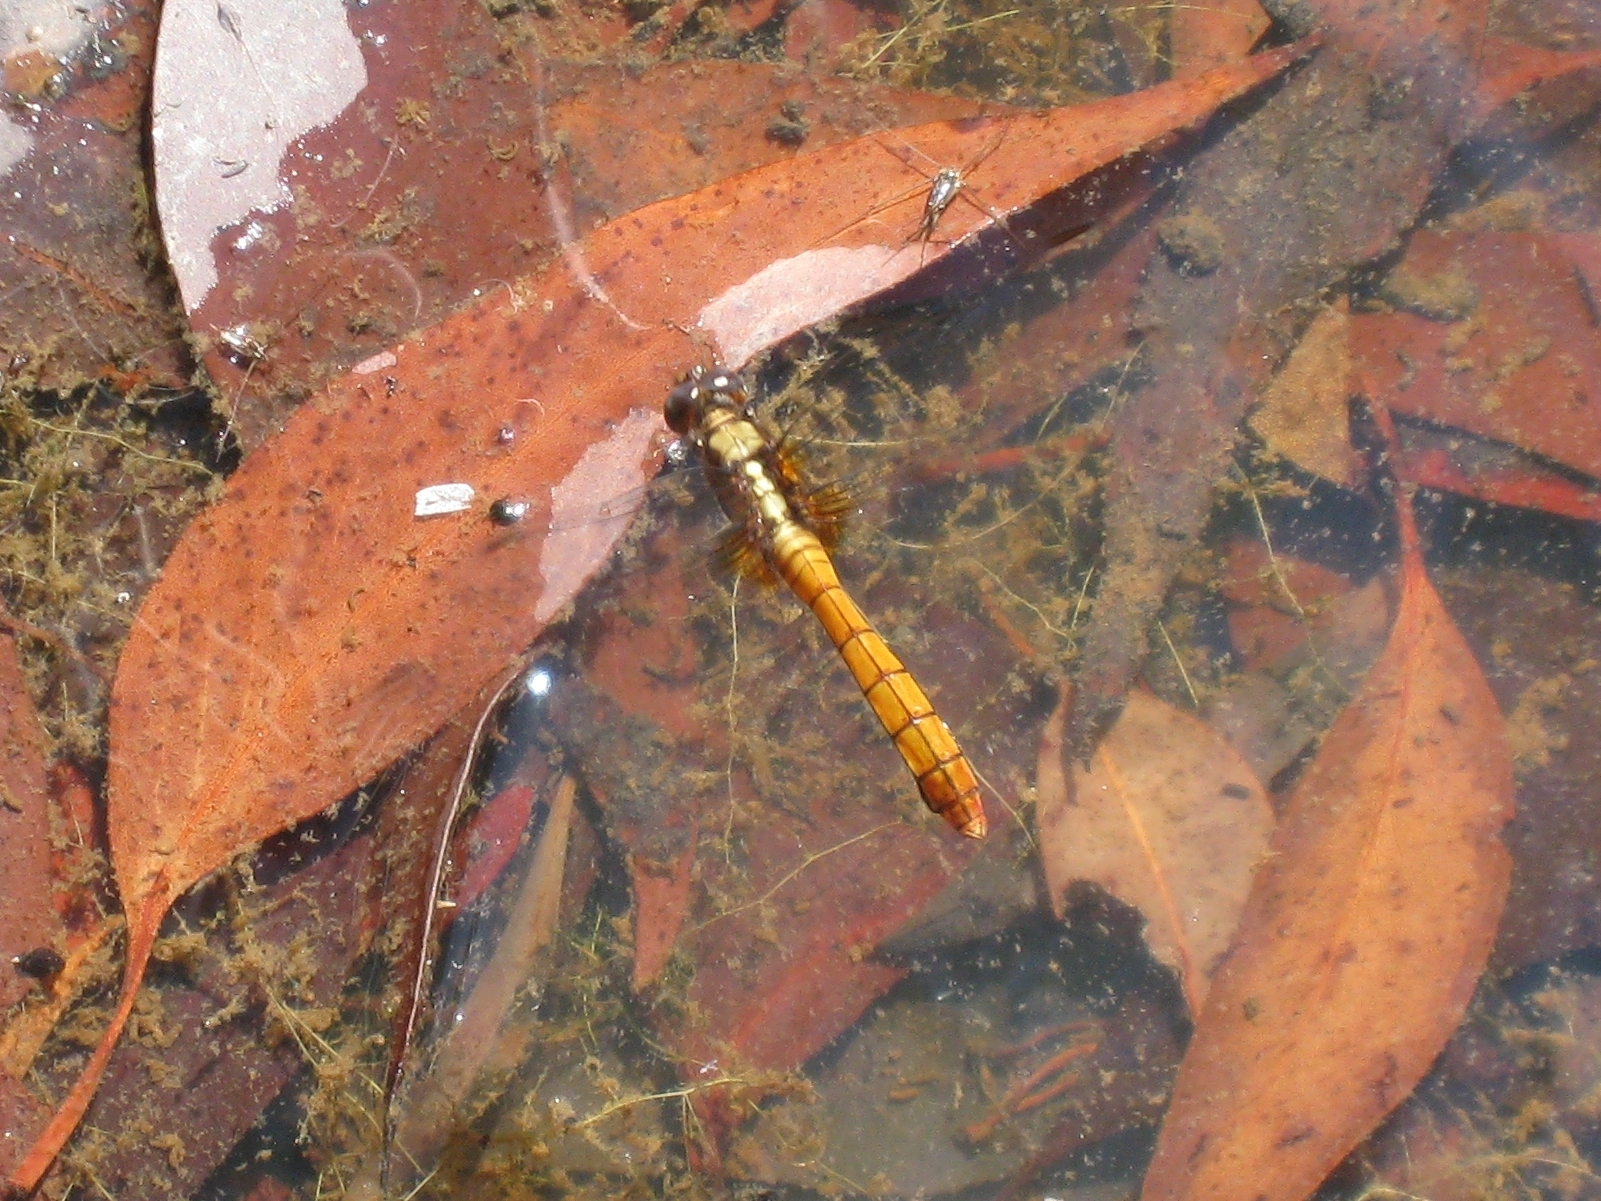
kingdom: Animalia
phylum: Arthropoda
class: Insecta
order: Odonata
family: Libellulidae
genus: Orthetrum
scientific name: Orthetrum villosovittatum
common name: Firery skimmer
